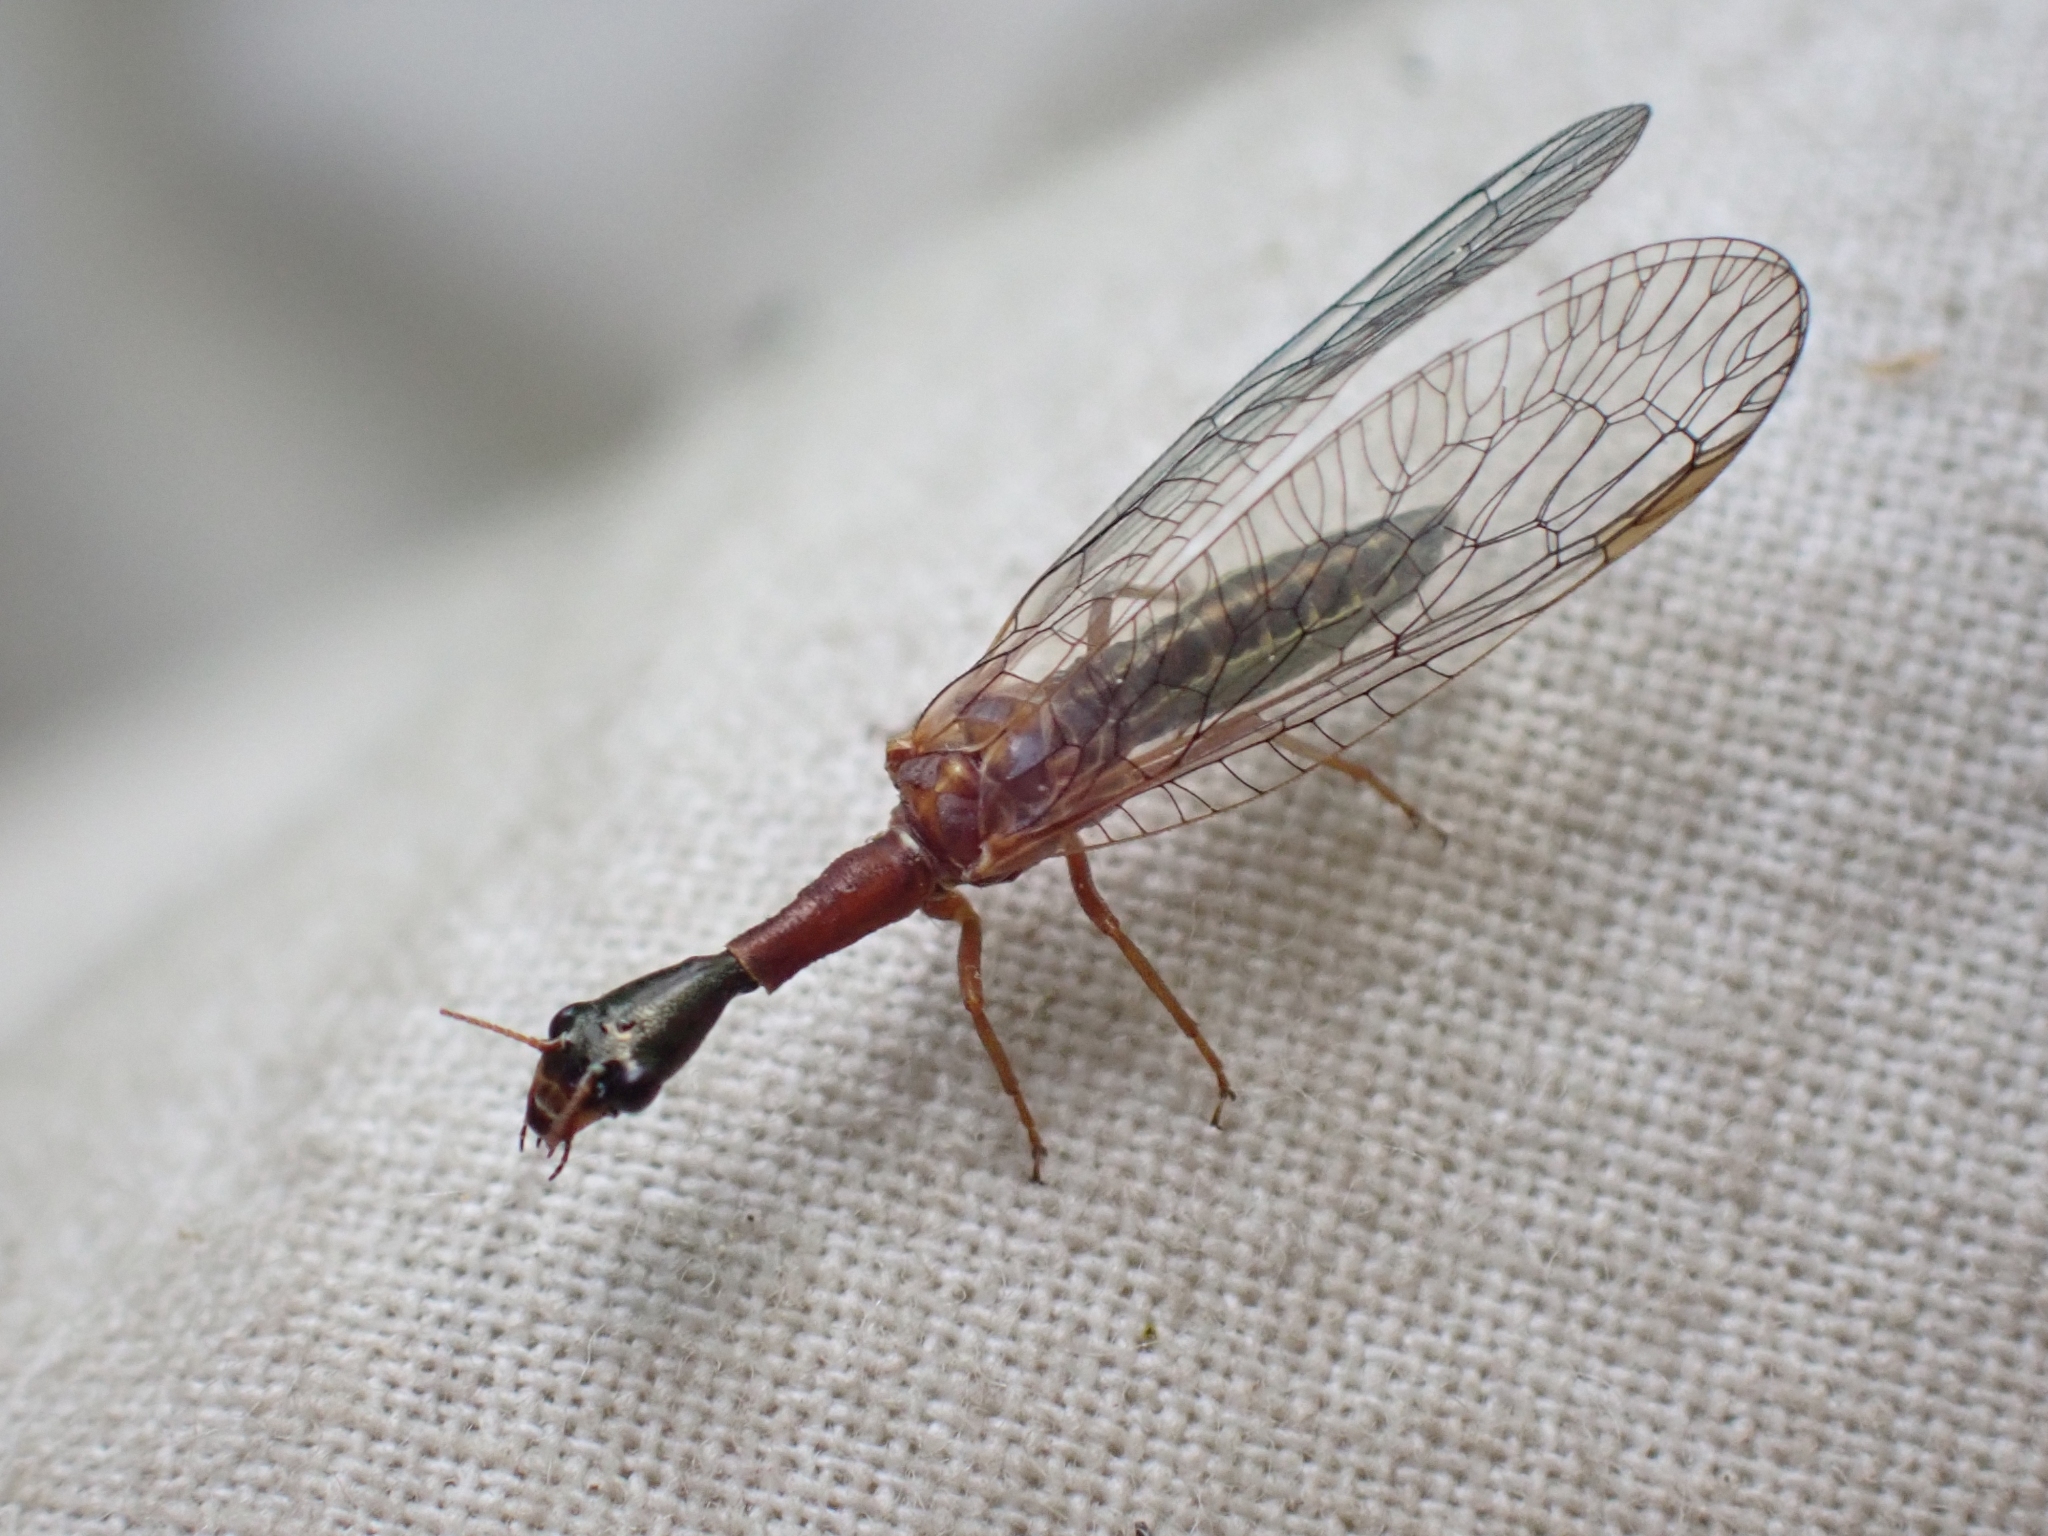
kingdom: Animalia
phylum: Arthropoda
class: Insecta
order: Raphidioptera
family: Raphidiidae
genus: Agulla
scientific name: Agulla unicolor
